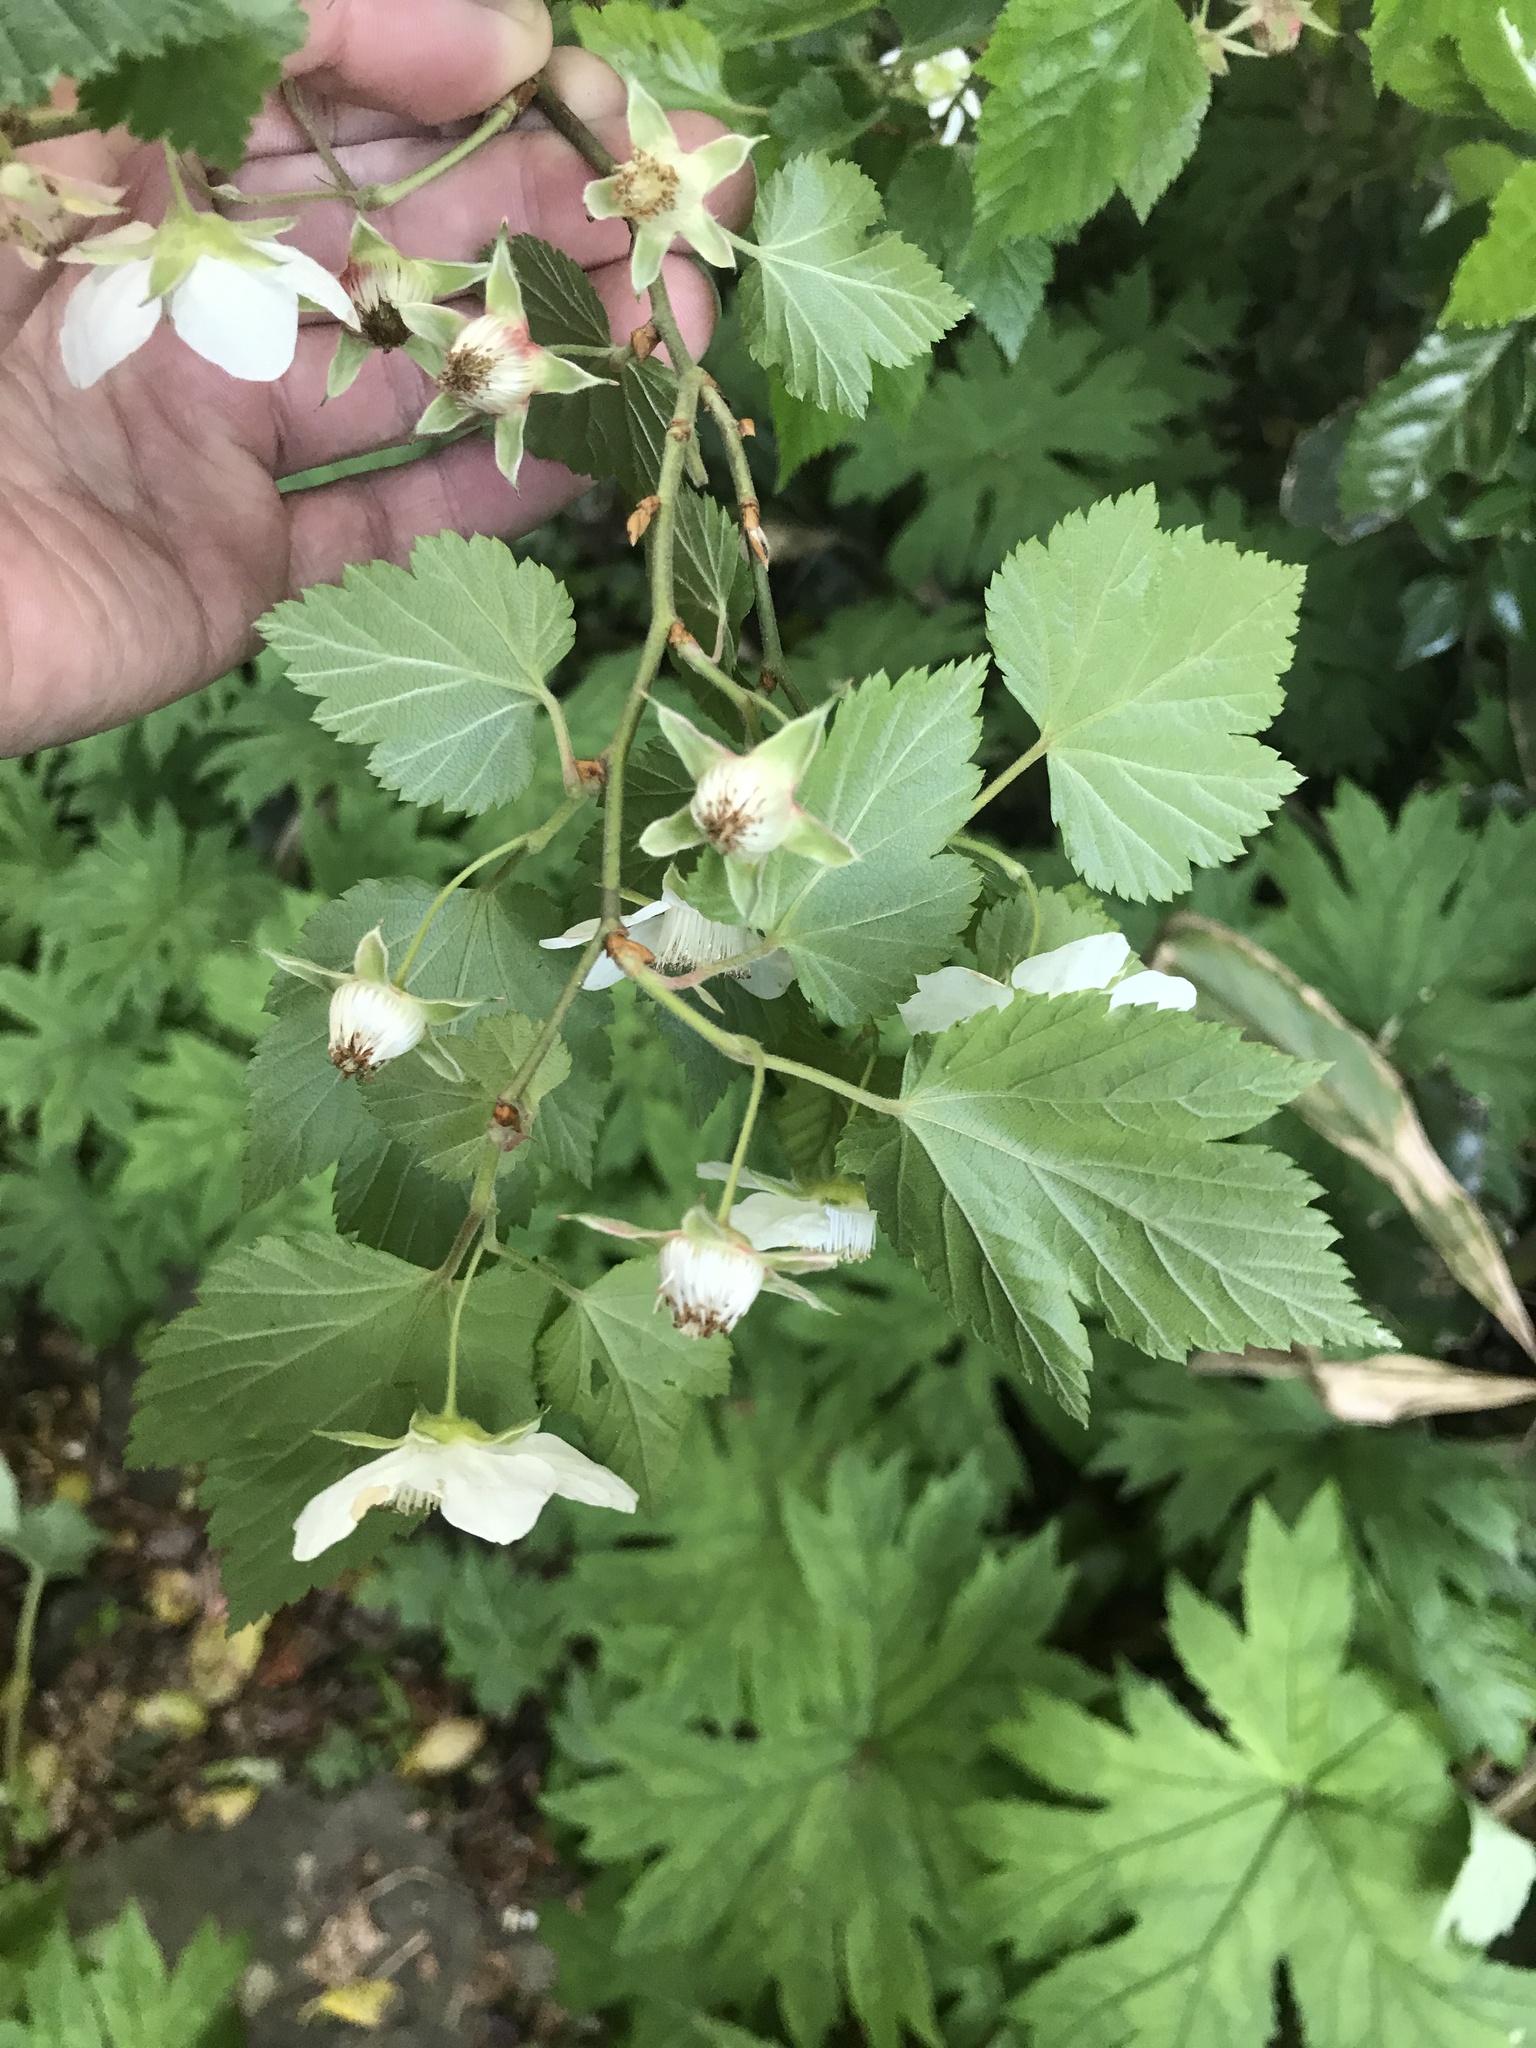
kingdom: Plantae
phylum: Tracheophyta
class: Magnoliopsida
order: Rosales
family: Rosaceae
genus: Rubus
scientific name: Rubus ribisoideus
